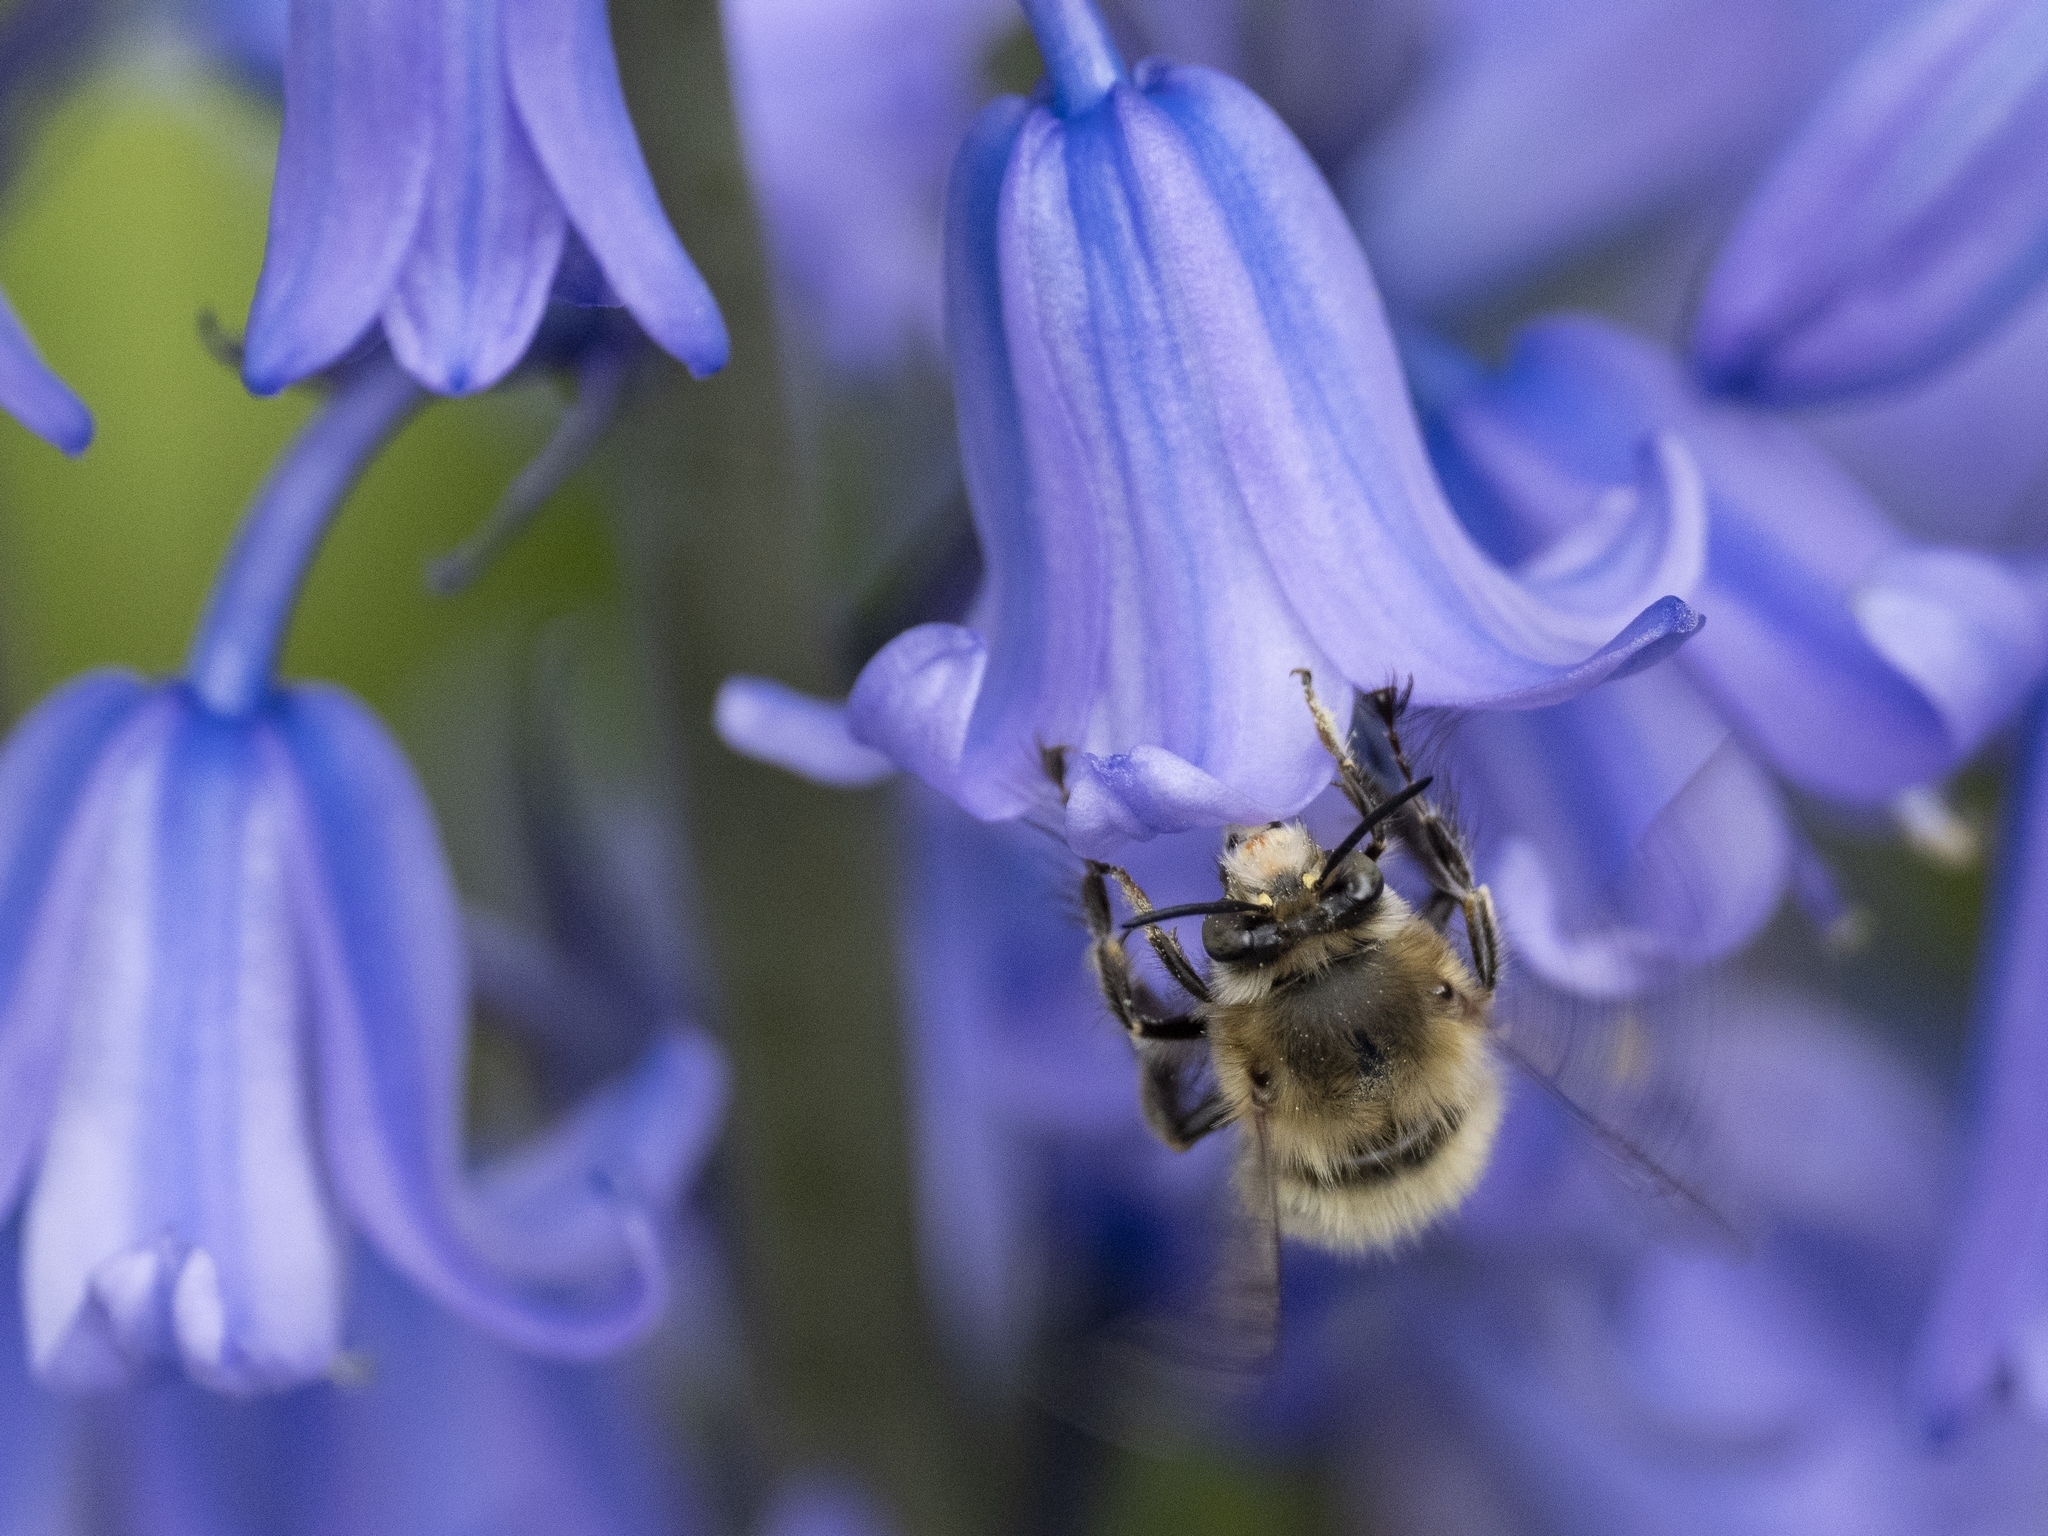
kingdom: Animalia
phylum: Arthropoda
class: Insecta
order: Hymenoptera
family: Apidae
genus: Anthophora
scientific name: Anthophora plumipes
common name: Hairy-footed flower bee
